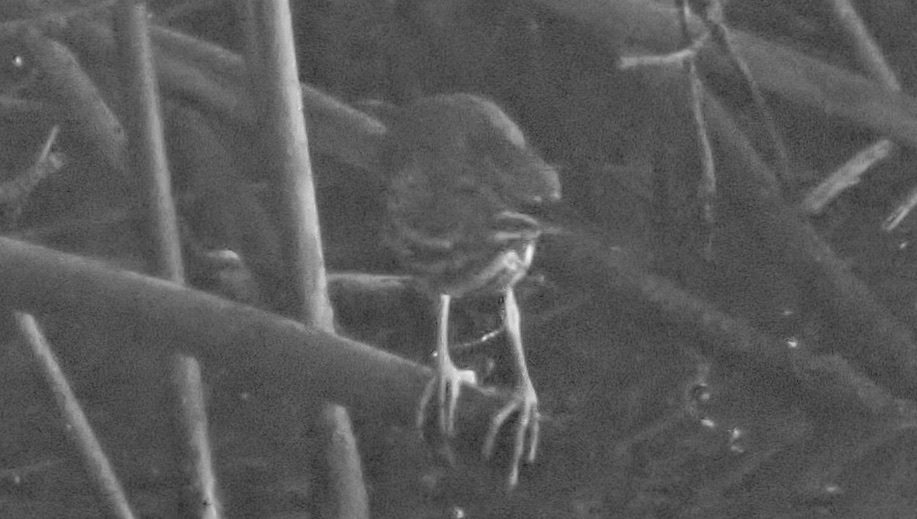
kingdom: Animalia
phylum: Chordata
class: Aves
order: Pelecaniformes
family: Ardeidae
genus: Butorides
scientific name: Butorides virescens
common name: Green heron
